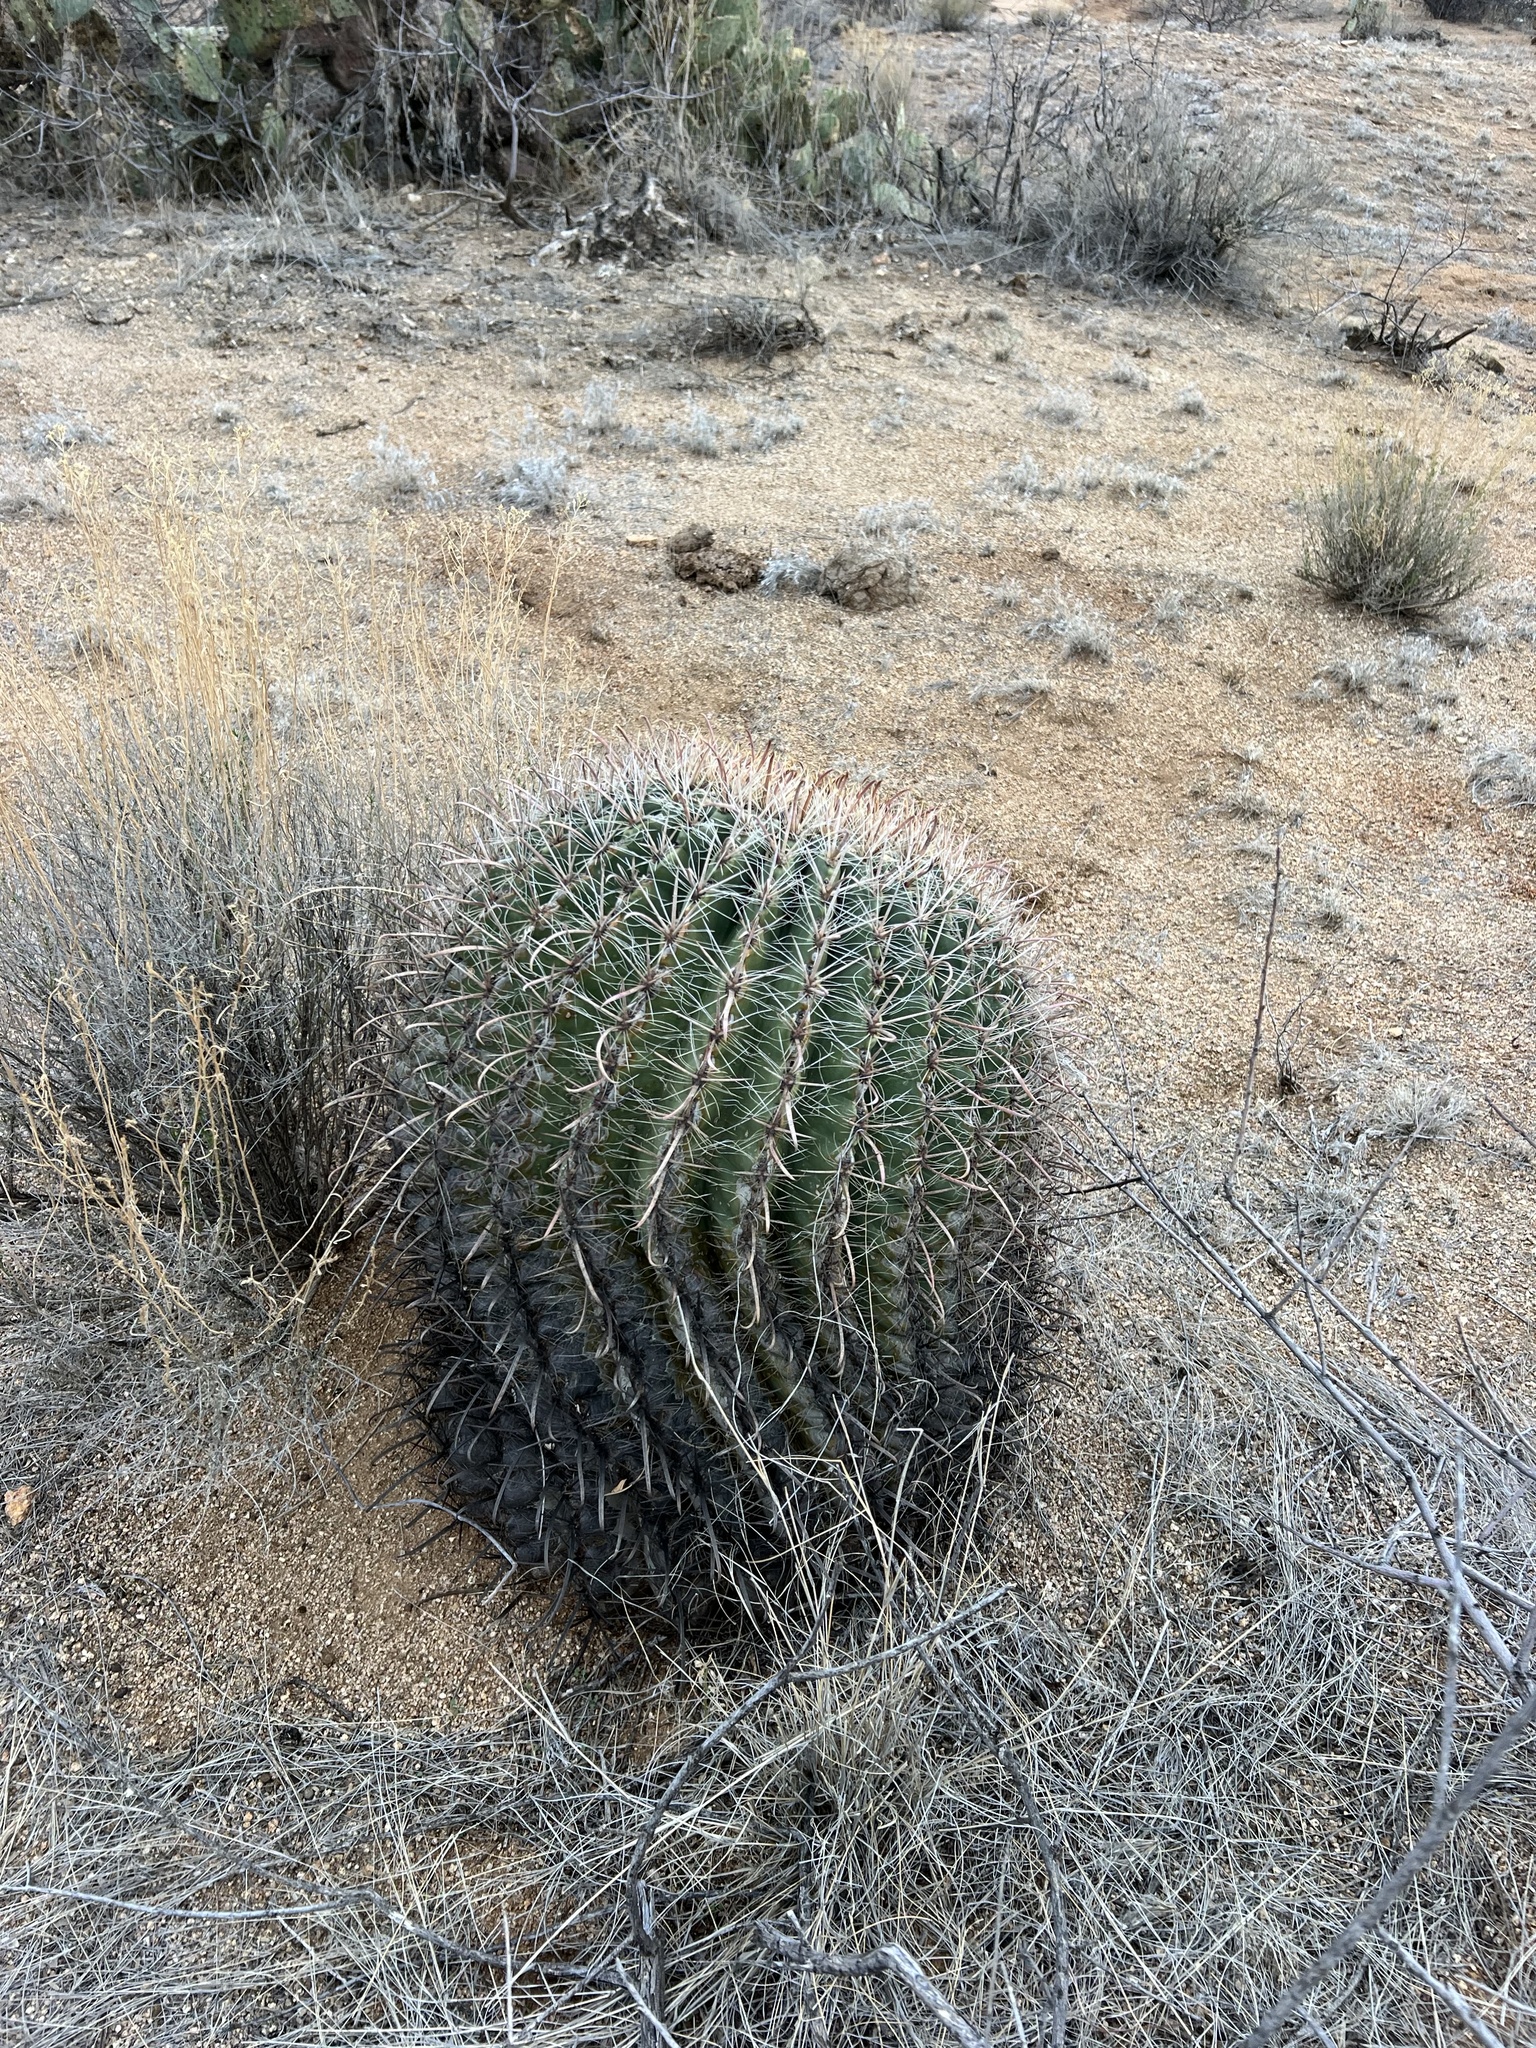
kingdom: Plantae
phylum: Tracheophyta
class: Magnoliopsida
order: Caryophyllales
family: Cactaceae
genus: Ferocactus
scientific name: Ferocactus wislizeni
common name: Candy barrel cactus
